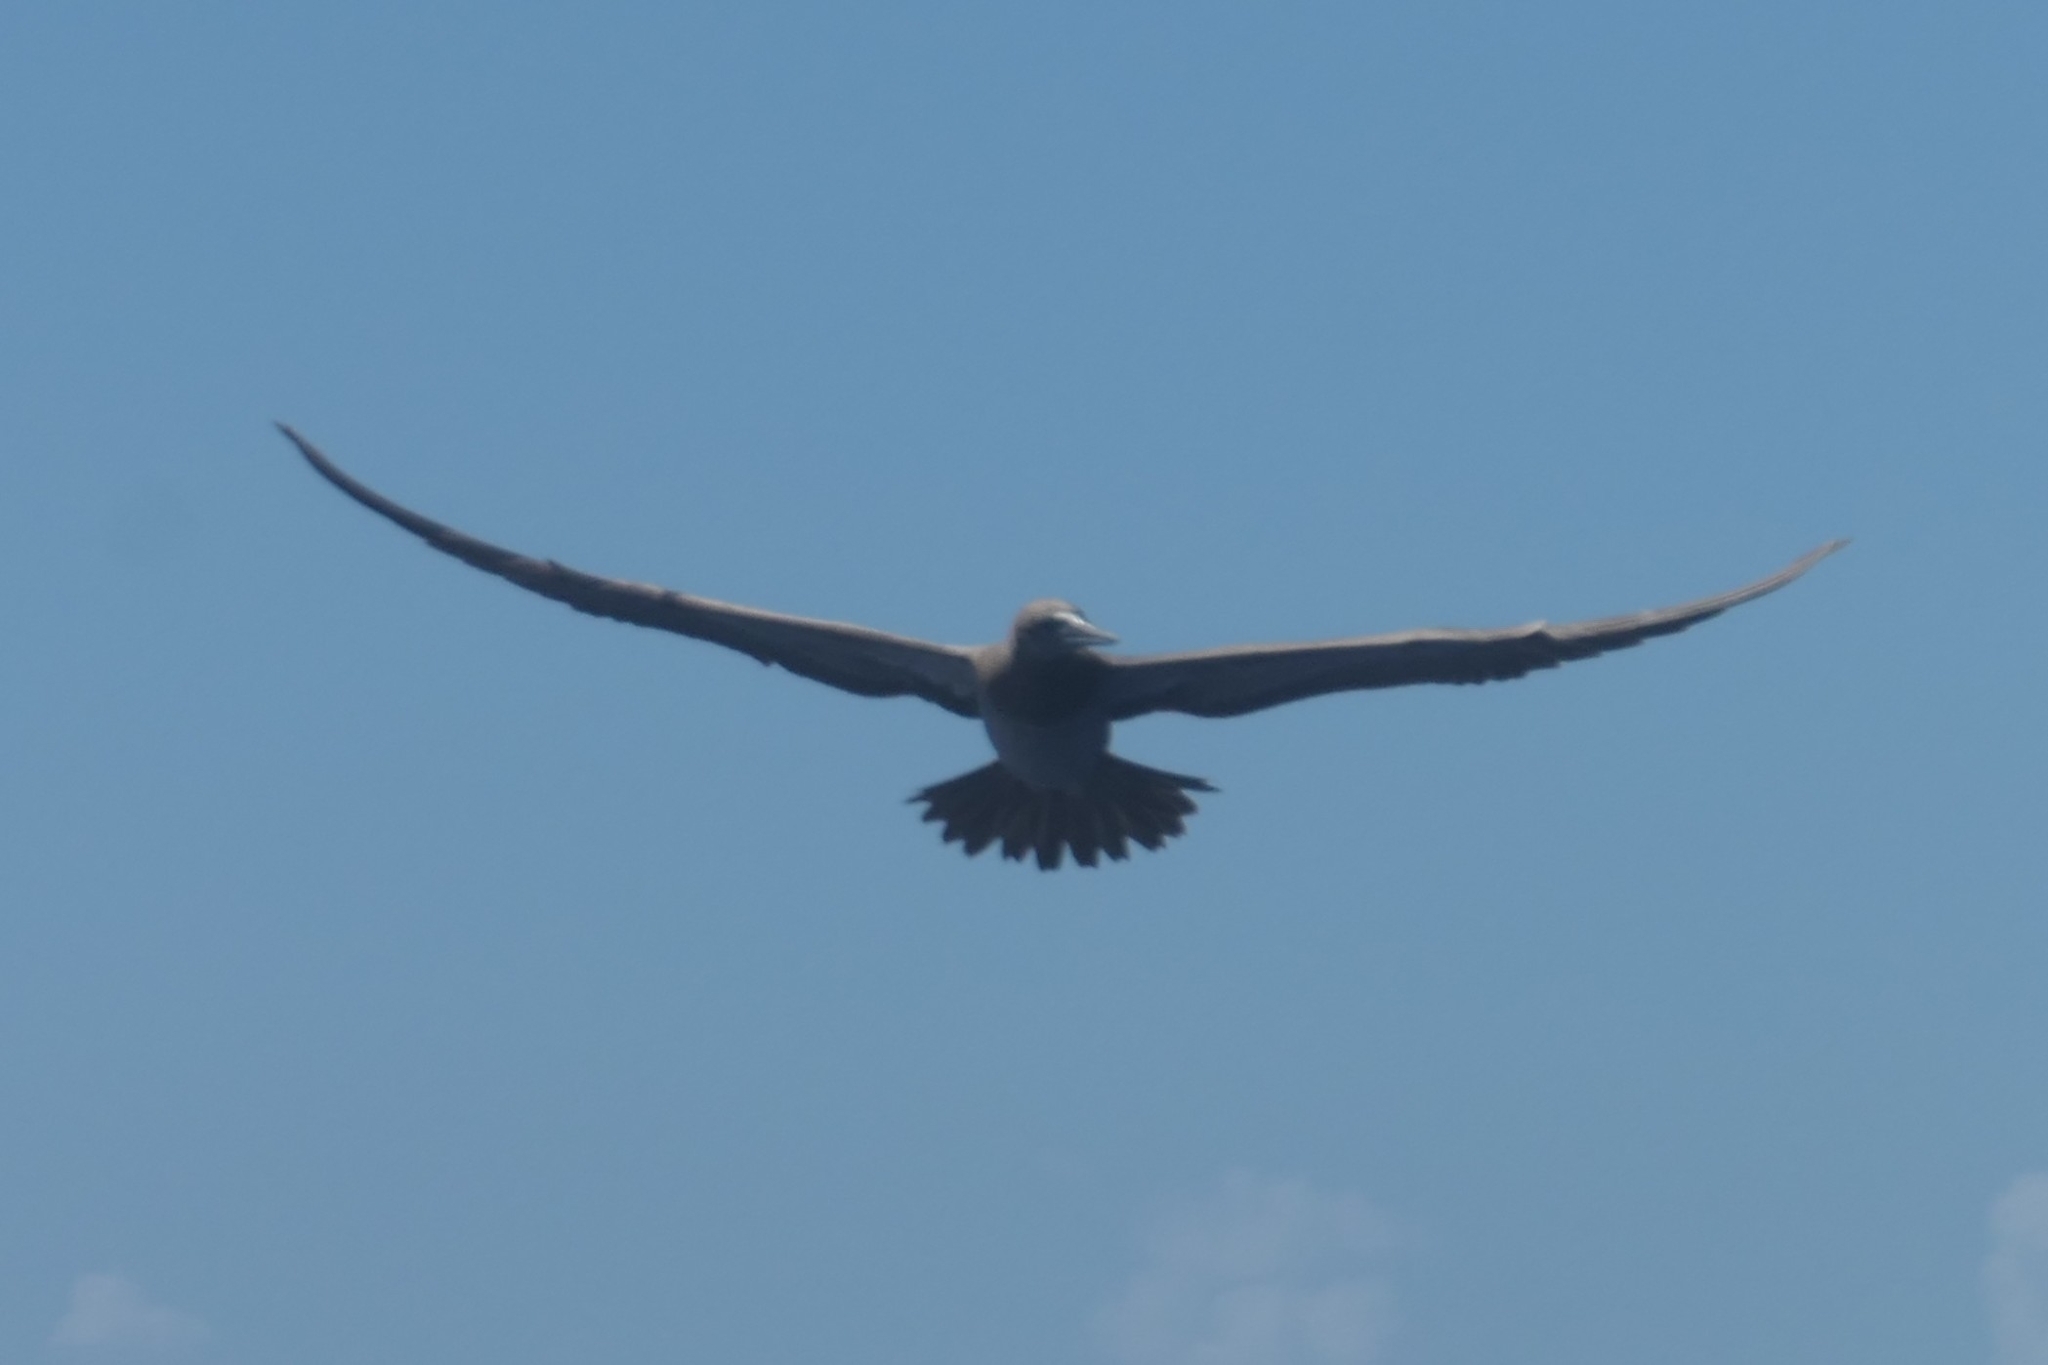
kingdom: Animalia
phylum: Chordata
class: Aves
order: Suliformes
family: Sulidae
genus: Sula
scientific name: Sula leucogaster
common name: Brown booby
